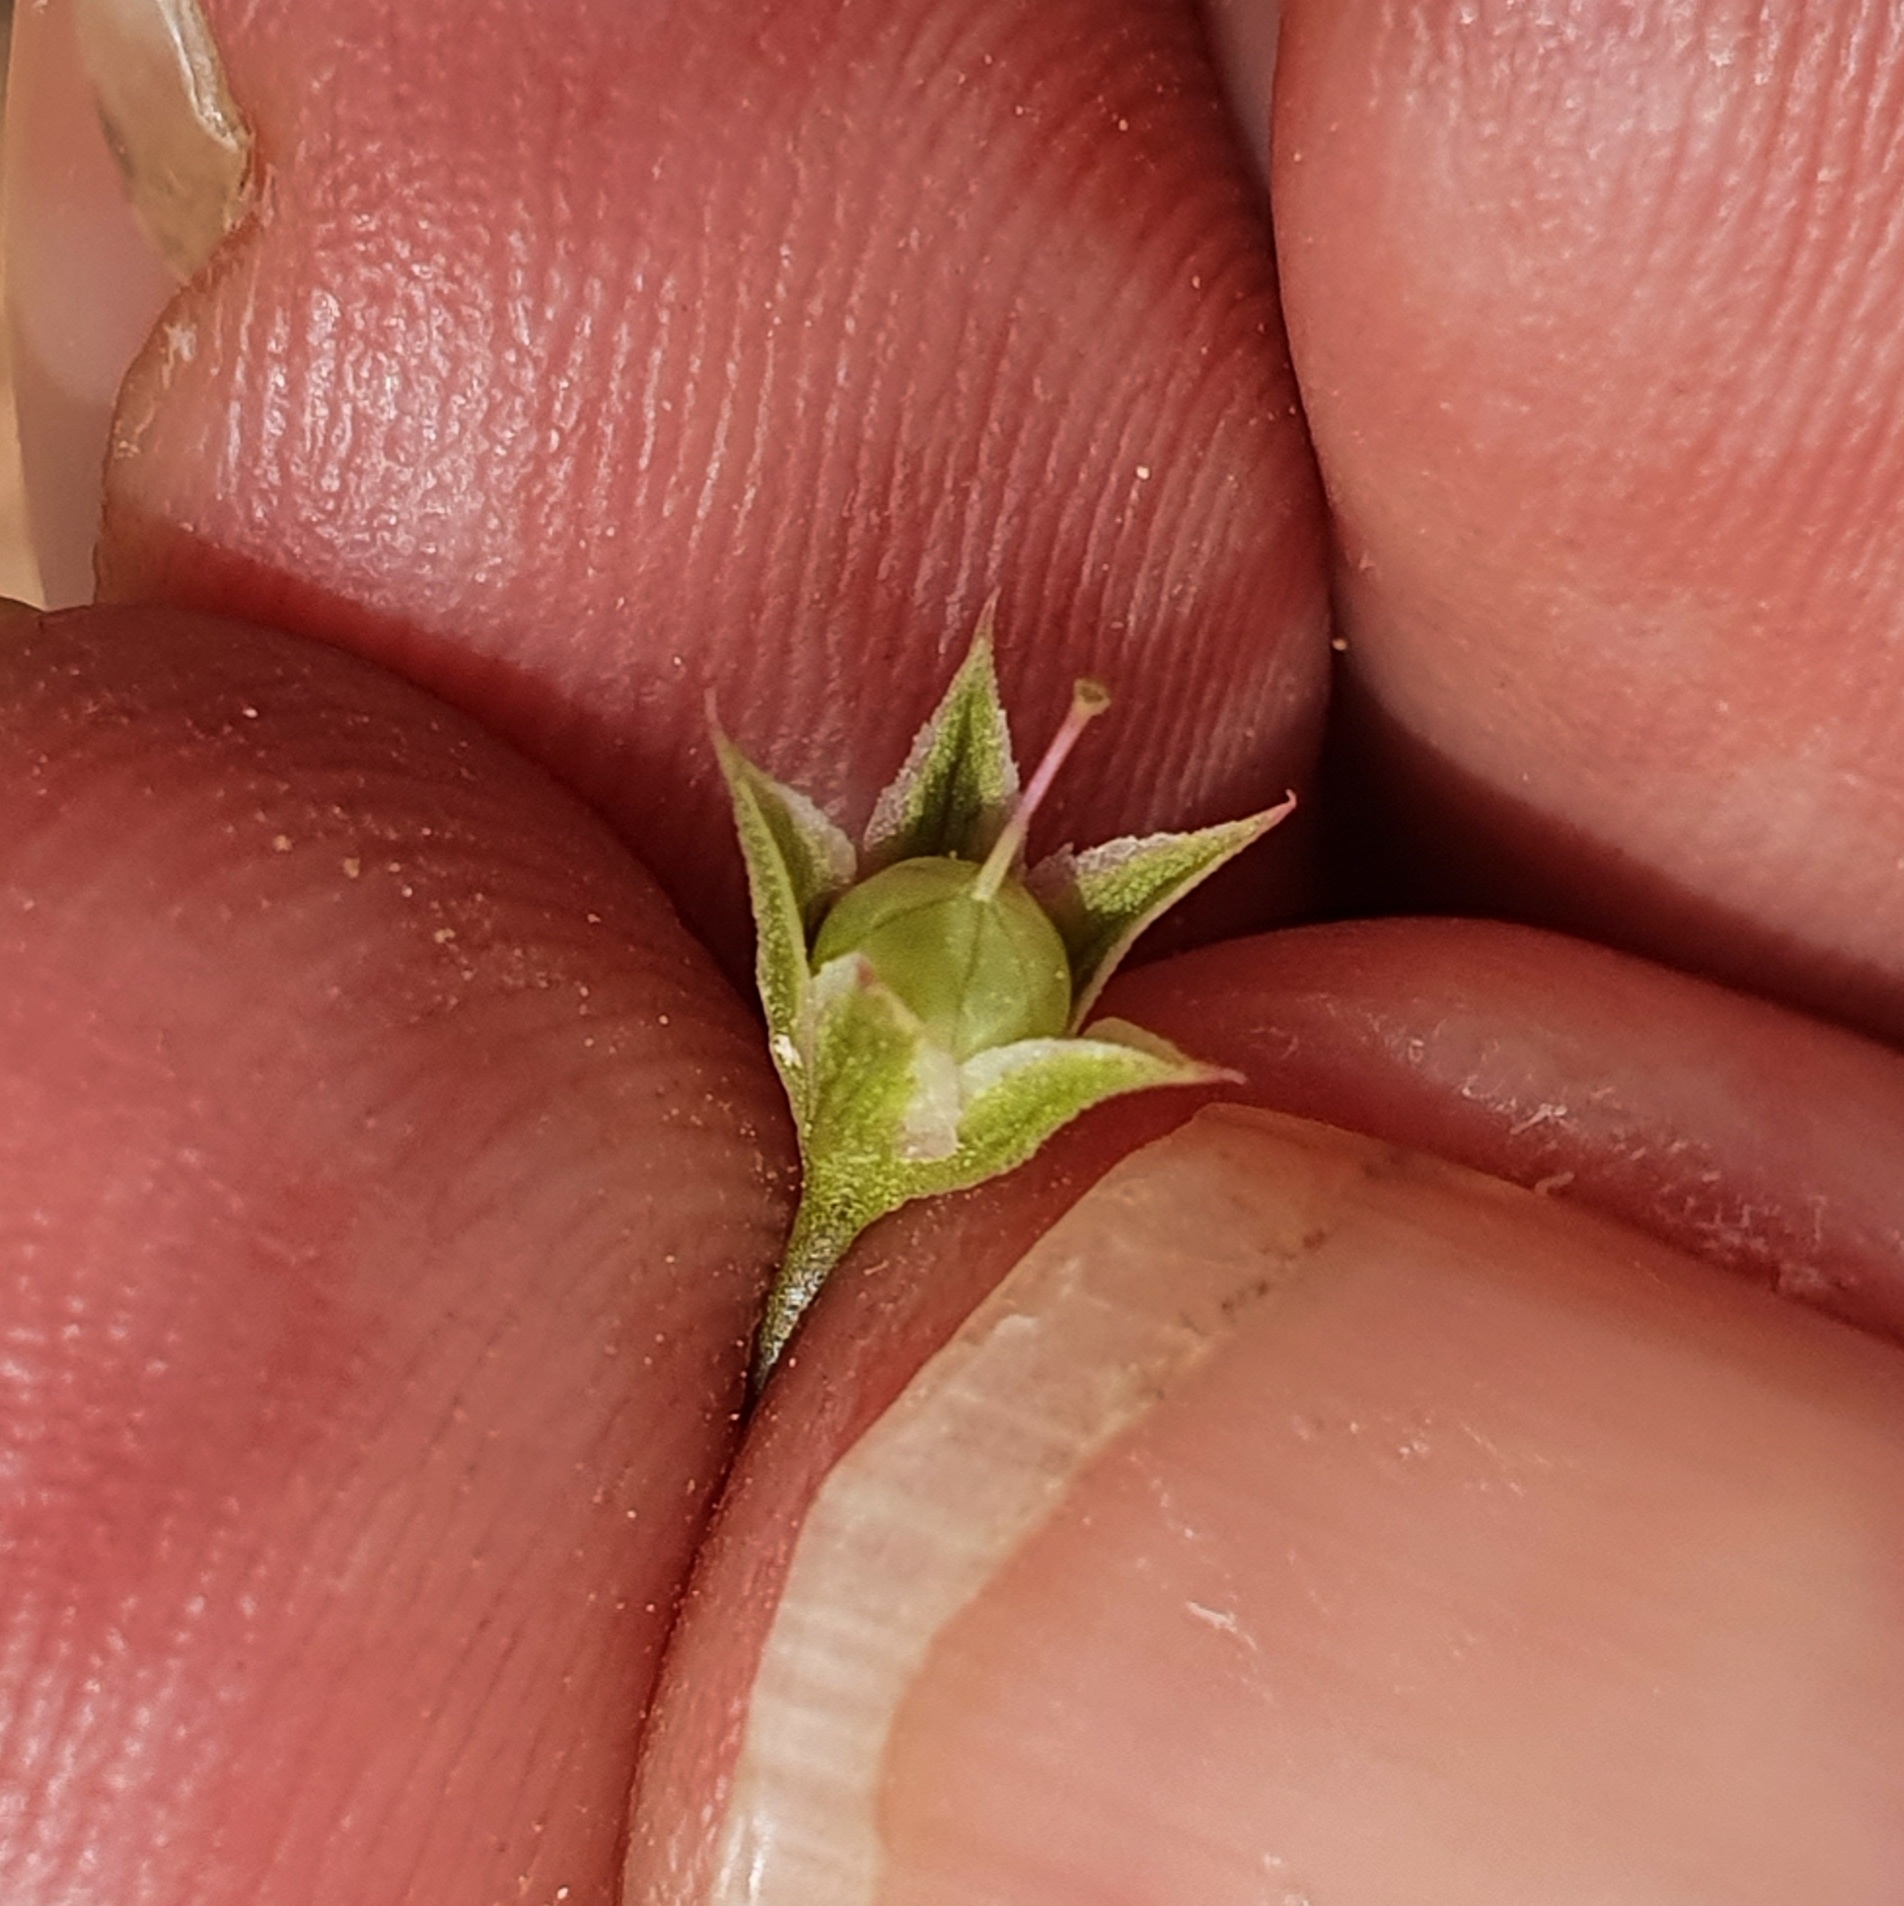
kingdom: Plantae
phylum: Tracheophyta
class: Magnoliopsida
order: Ericales
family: Primulaceae
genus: Lysimachia
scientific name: Lysimachia loeflingii
